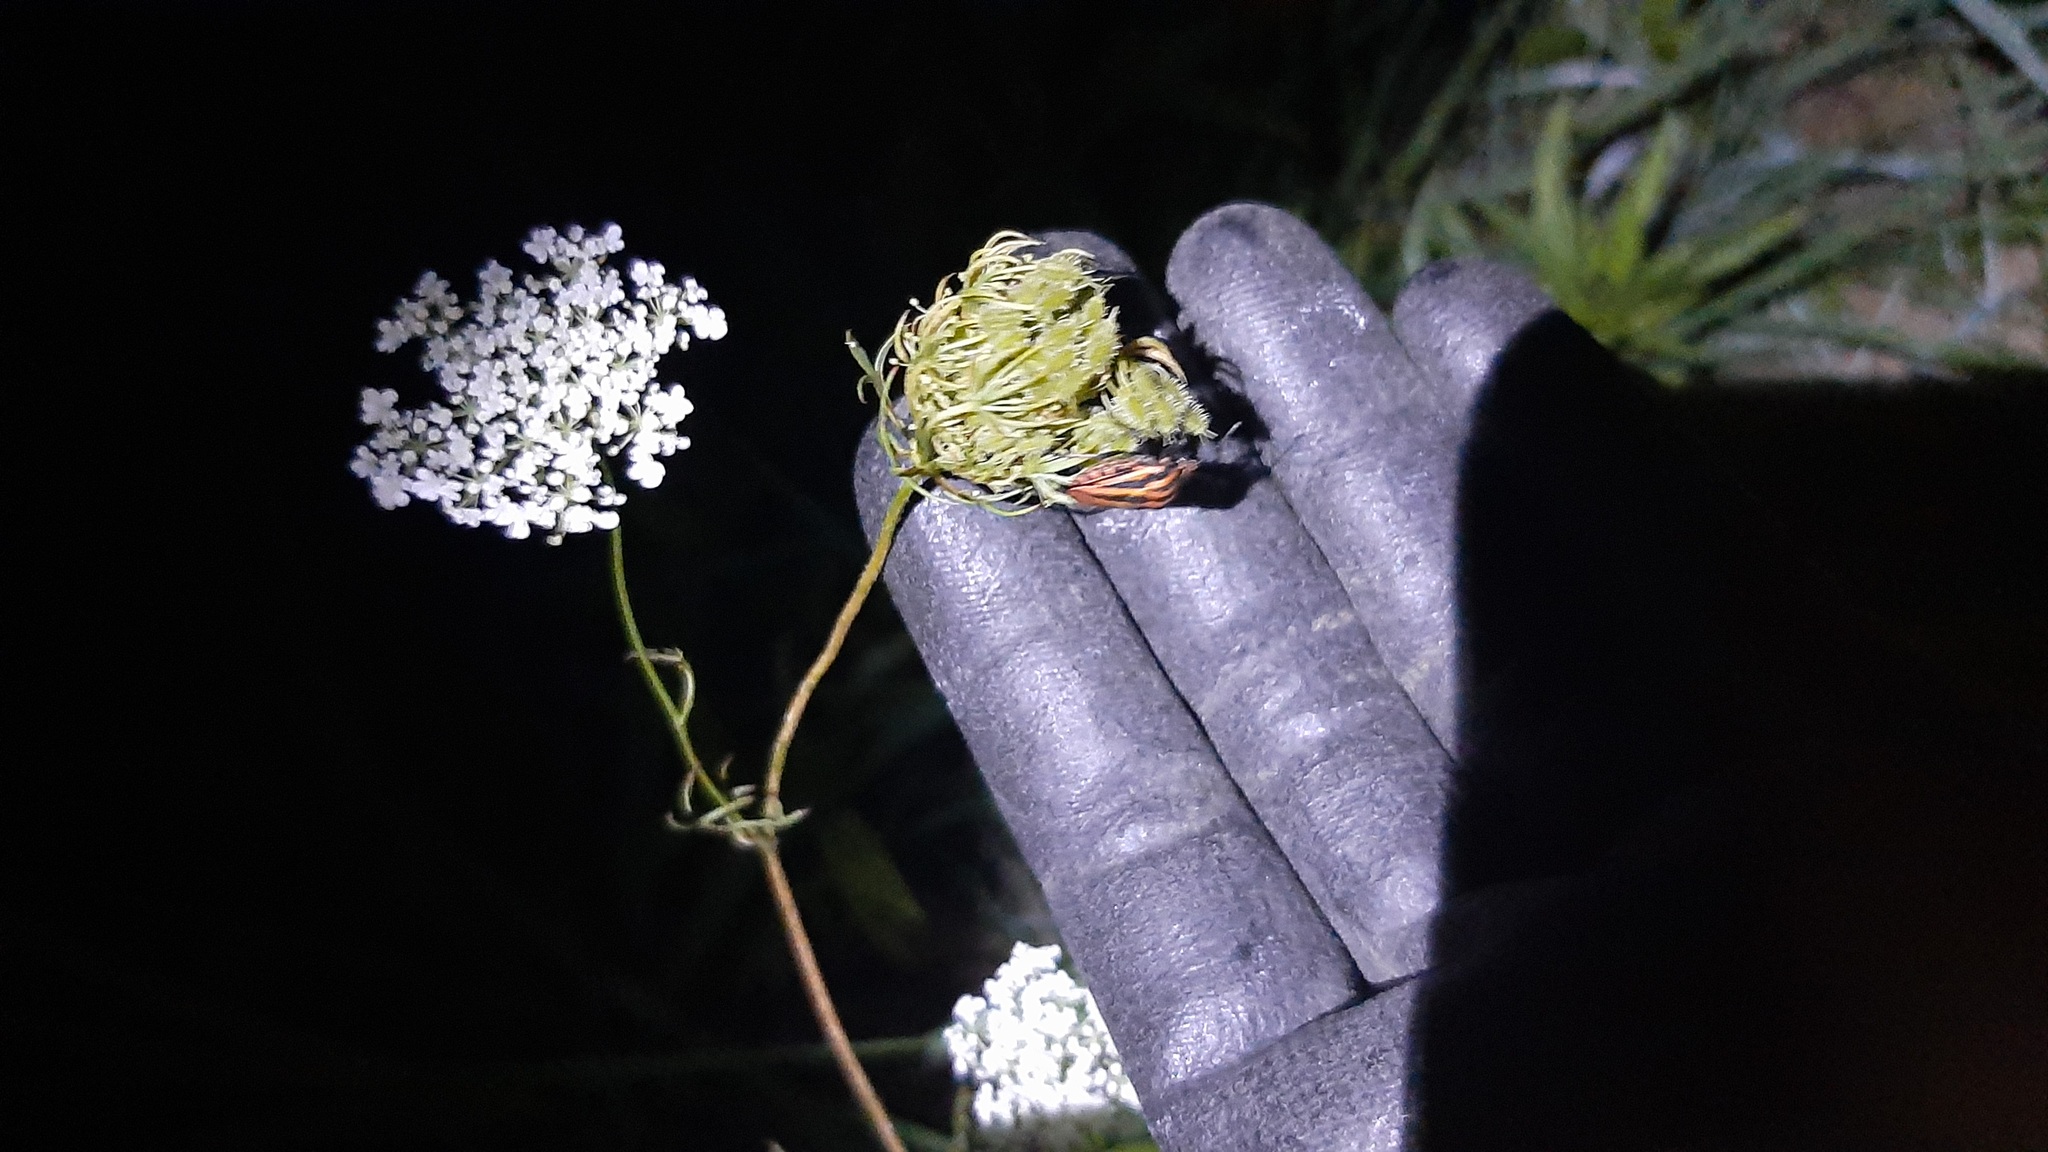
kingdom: Animalia
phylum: Arthropoda
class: Insecta
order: Hemiptera
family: Pentatomidae
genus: Graphosoma
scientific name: Graphosoma italicum
